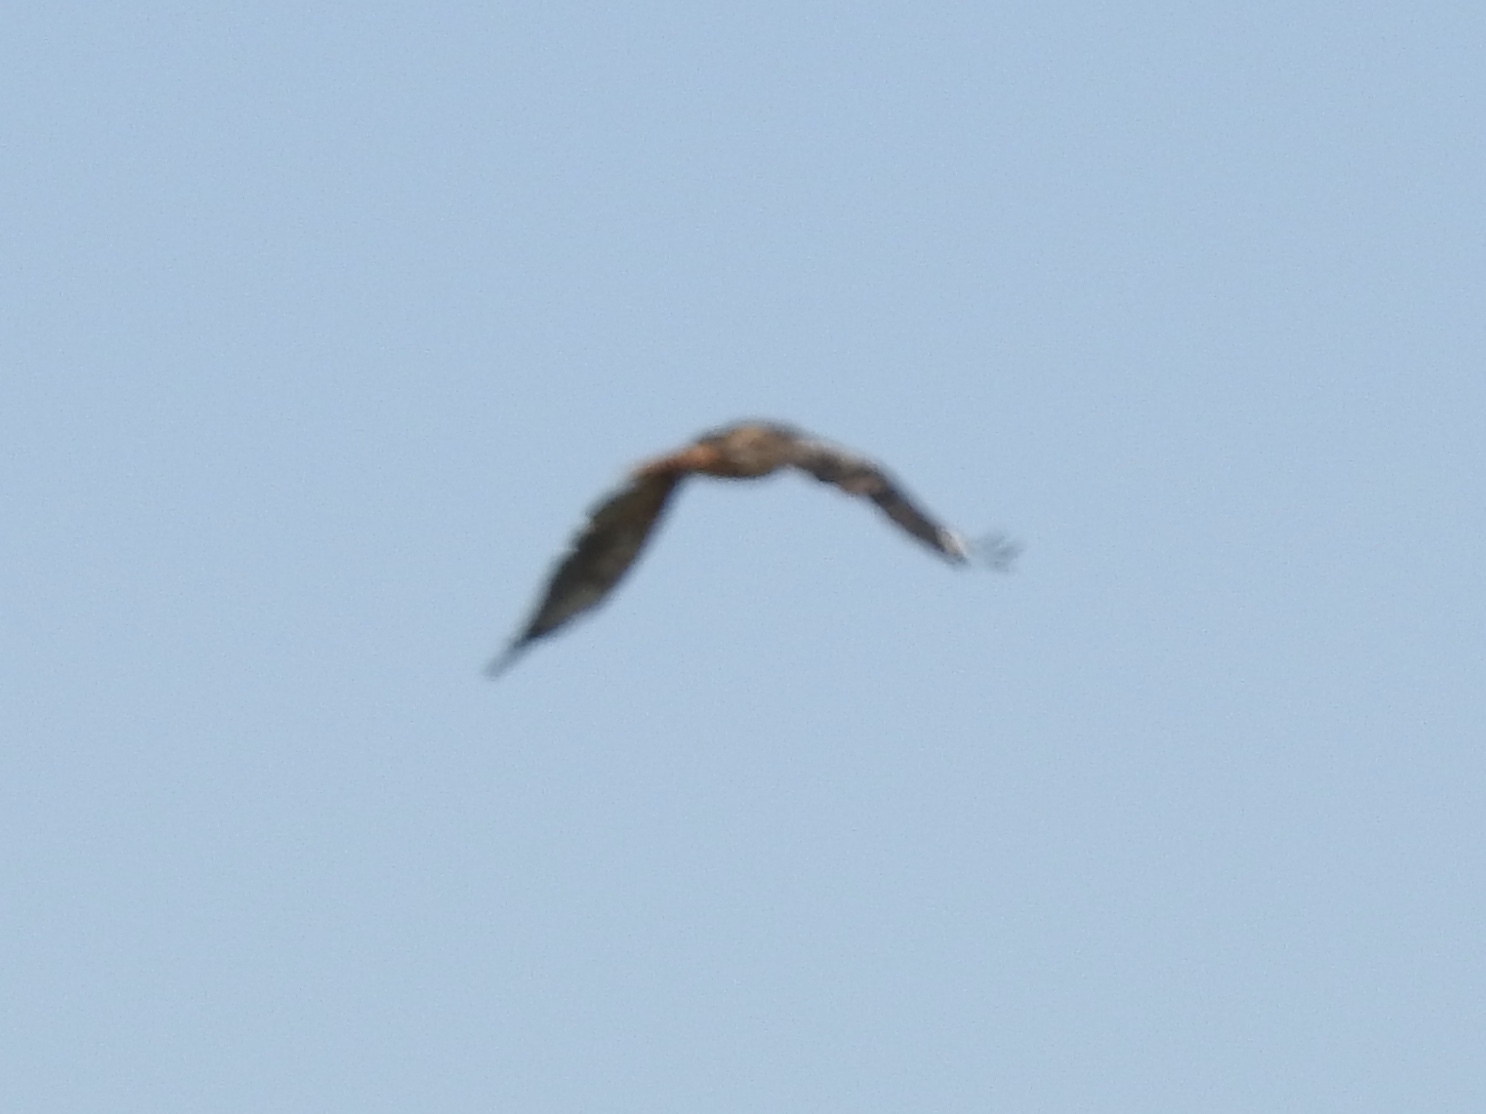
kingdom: Animalia
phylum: Chordata
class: Aves
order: Accipitriformes
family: Accipitridae
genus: Buteo
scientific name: Buteo jamaicensis
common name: Red-tailed hawk
